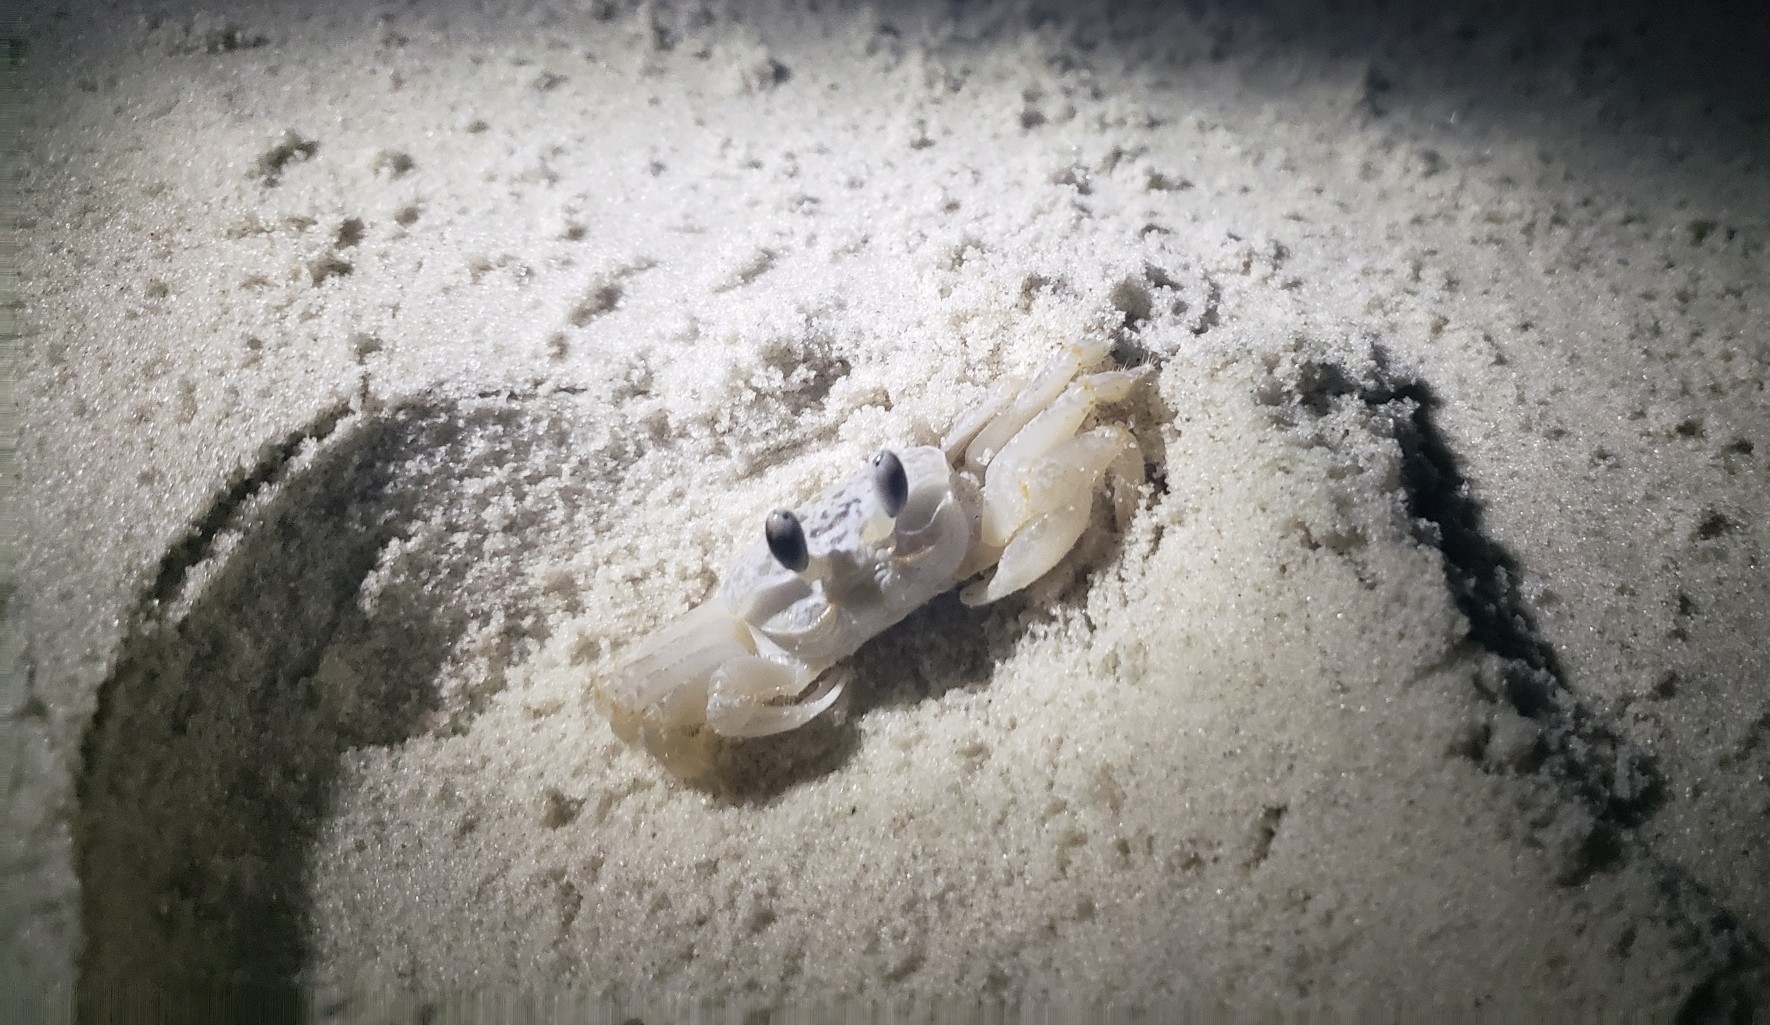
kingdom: Animalia
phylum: Arthropoda
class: Malacostraca
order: Decapoda
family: Ocypodidae
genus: Ocypode
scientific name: Ocypode quadrata
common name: Ghost crab
